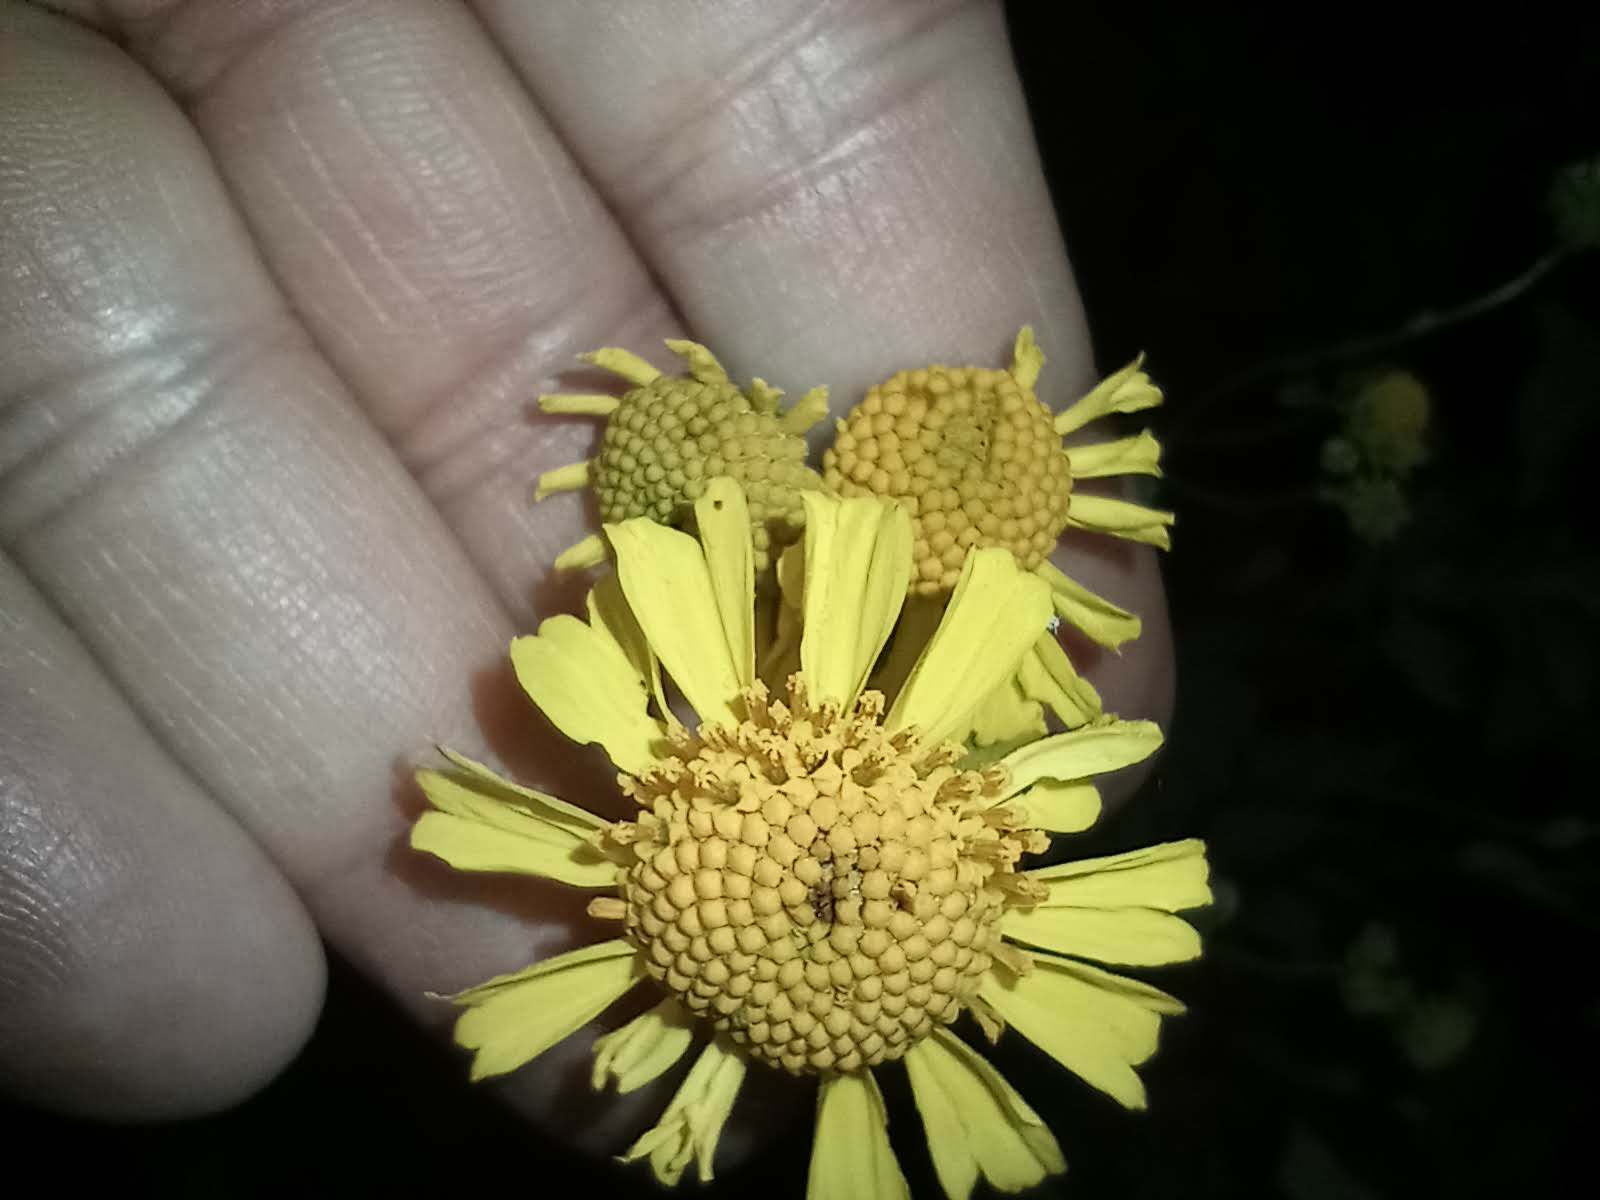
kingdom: Plantae
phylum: Tracheophyta
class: Magnoliopsida
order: Asterales
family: Asteraceae
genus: Encelia
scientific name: Encelia farinosa
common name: Brittlebush
